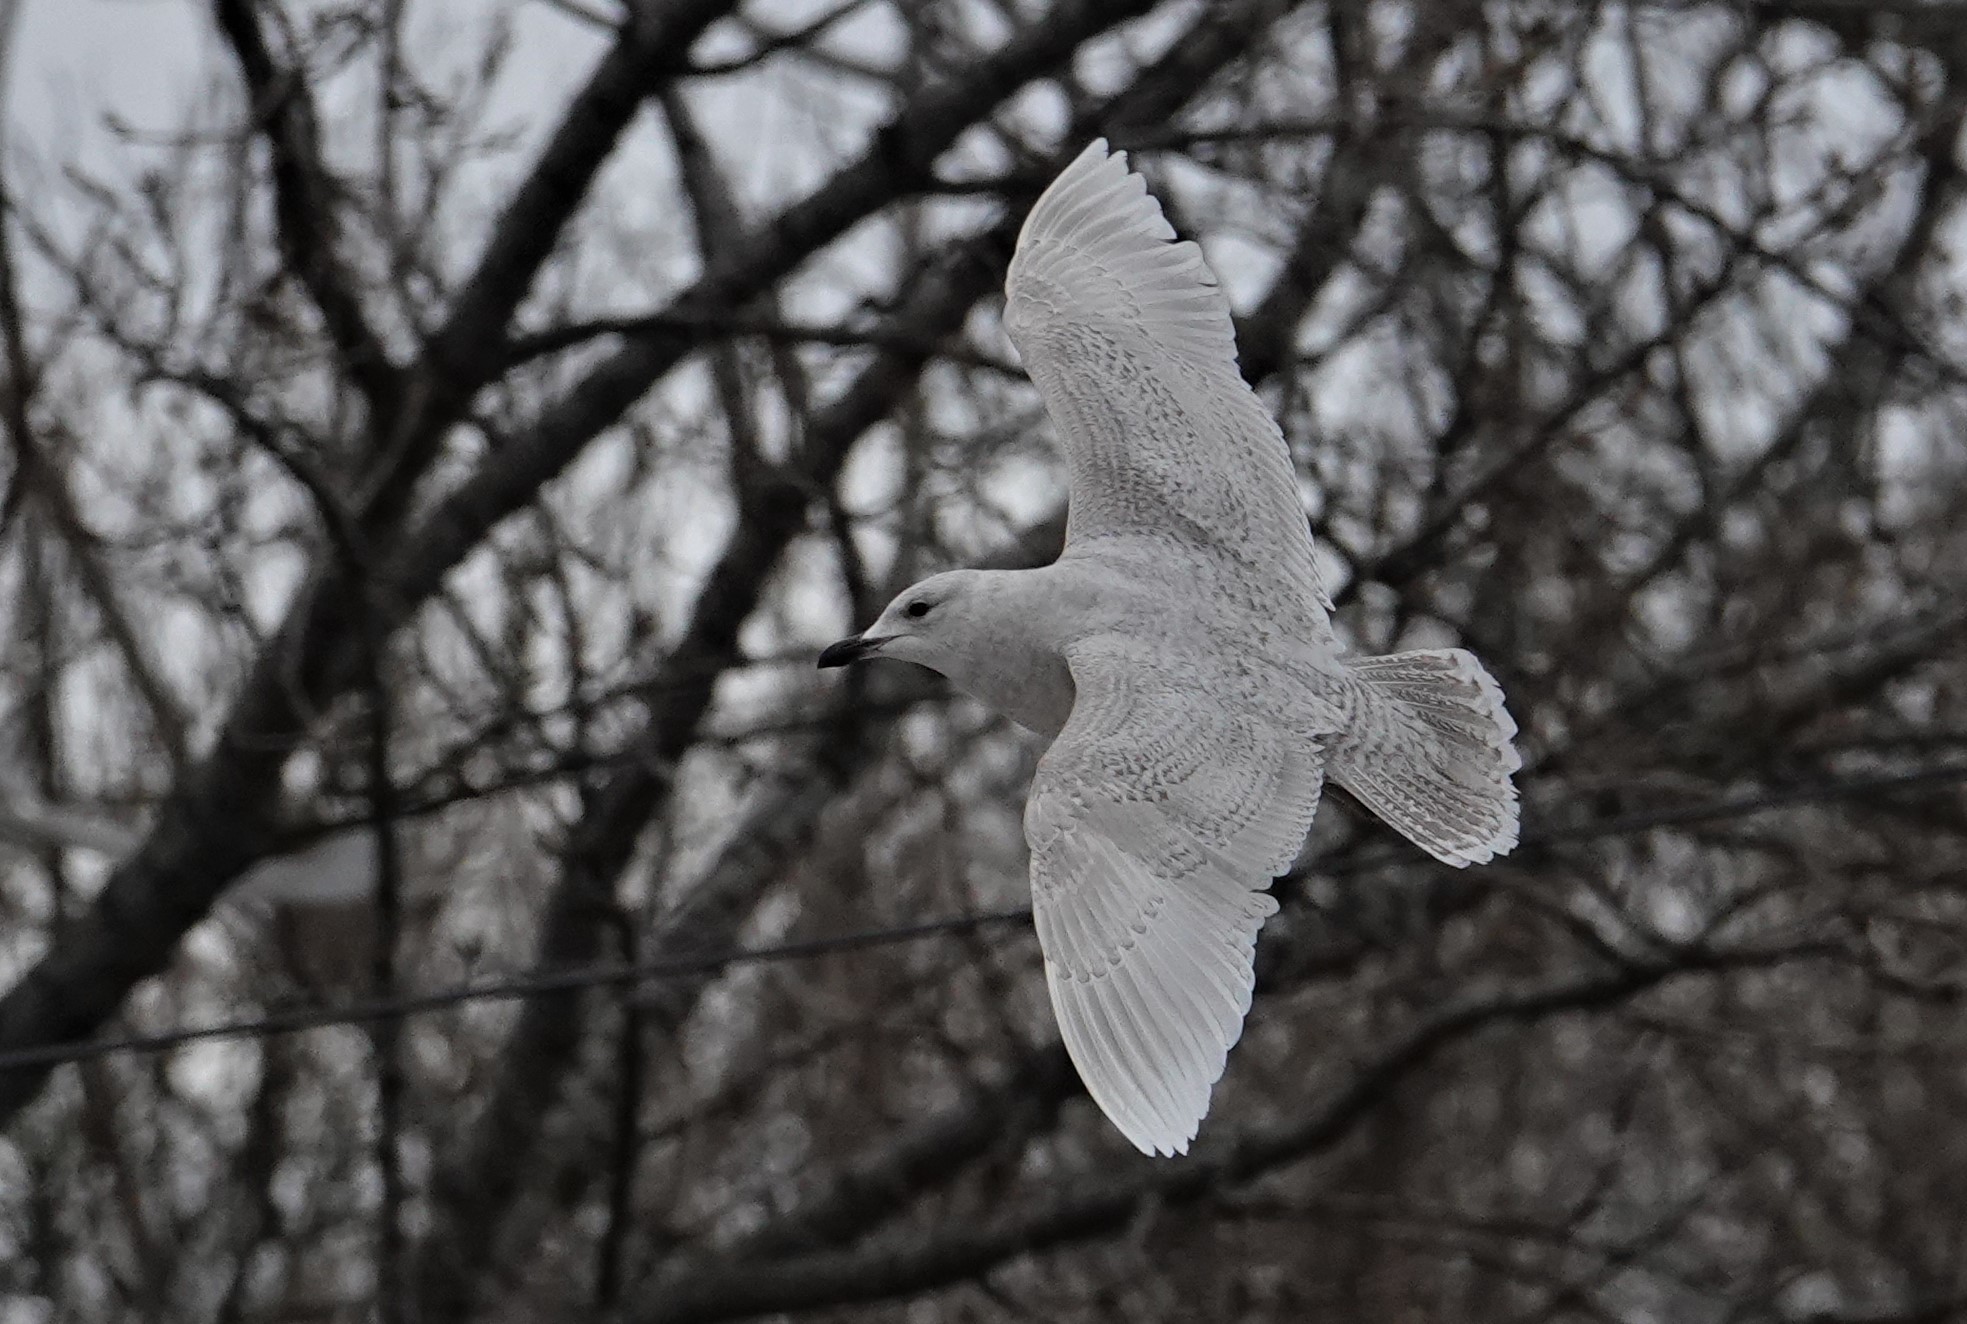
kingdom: Animalia
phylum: Chordata
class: Aves
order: Charadriiformes
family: Laridae
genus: Larus
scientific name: Larus glaucoides
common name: Iceland gull
